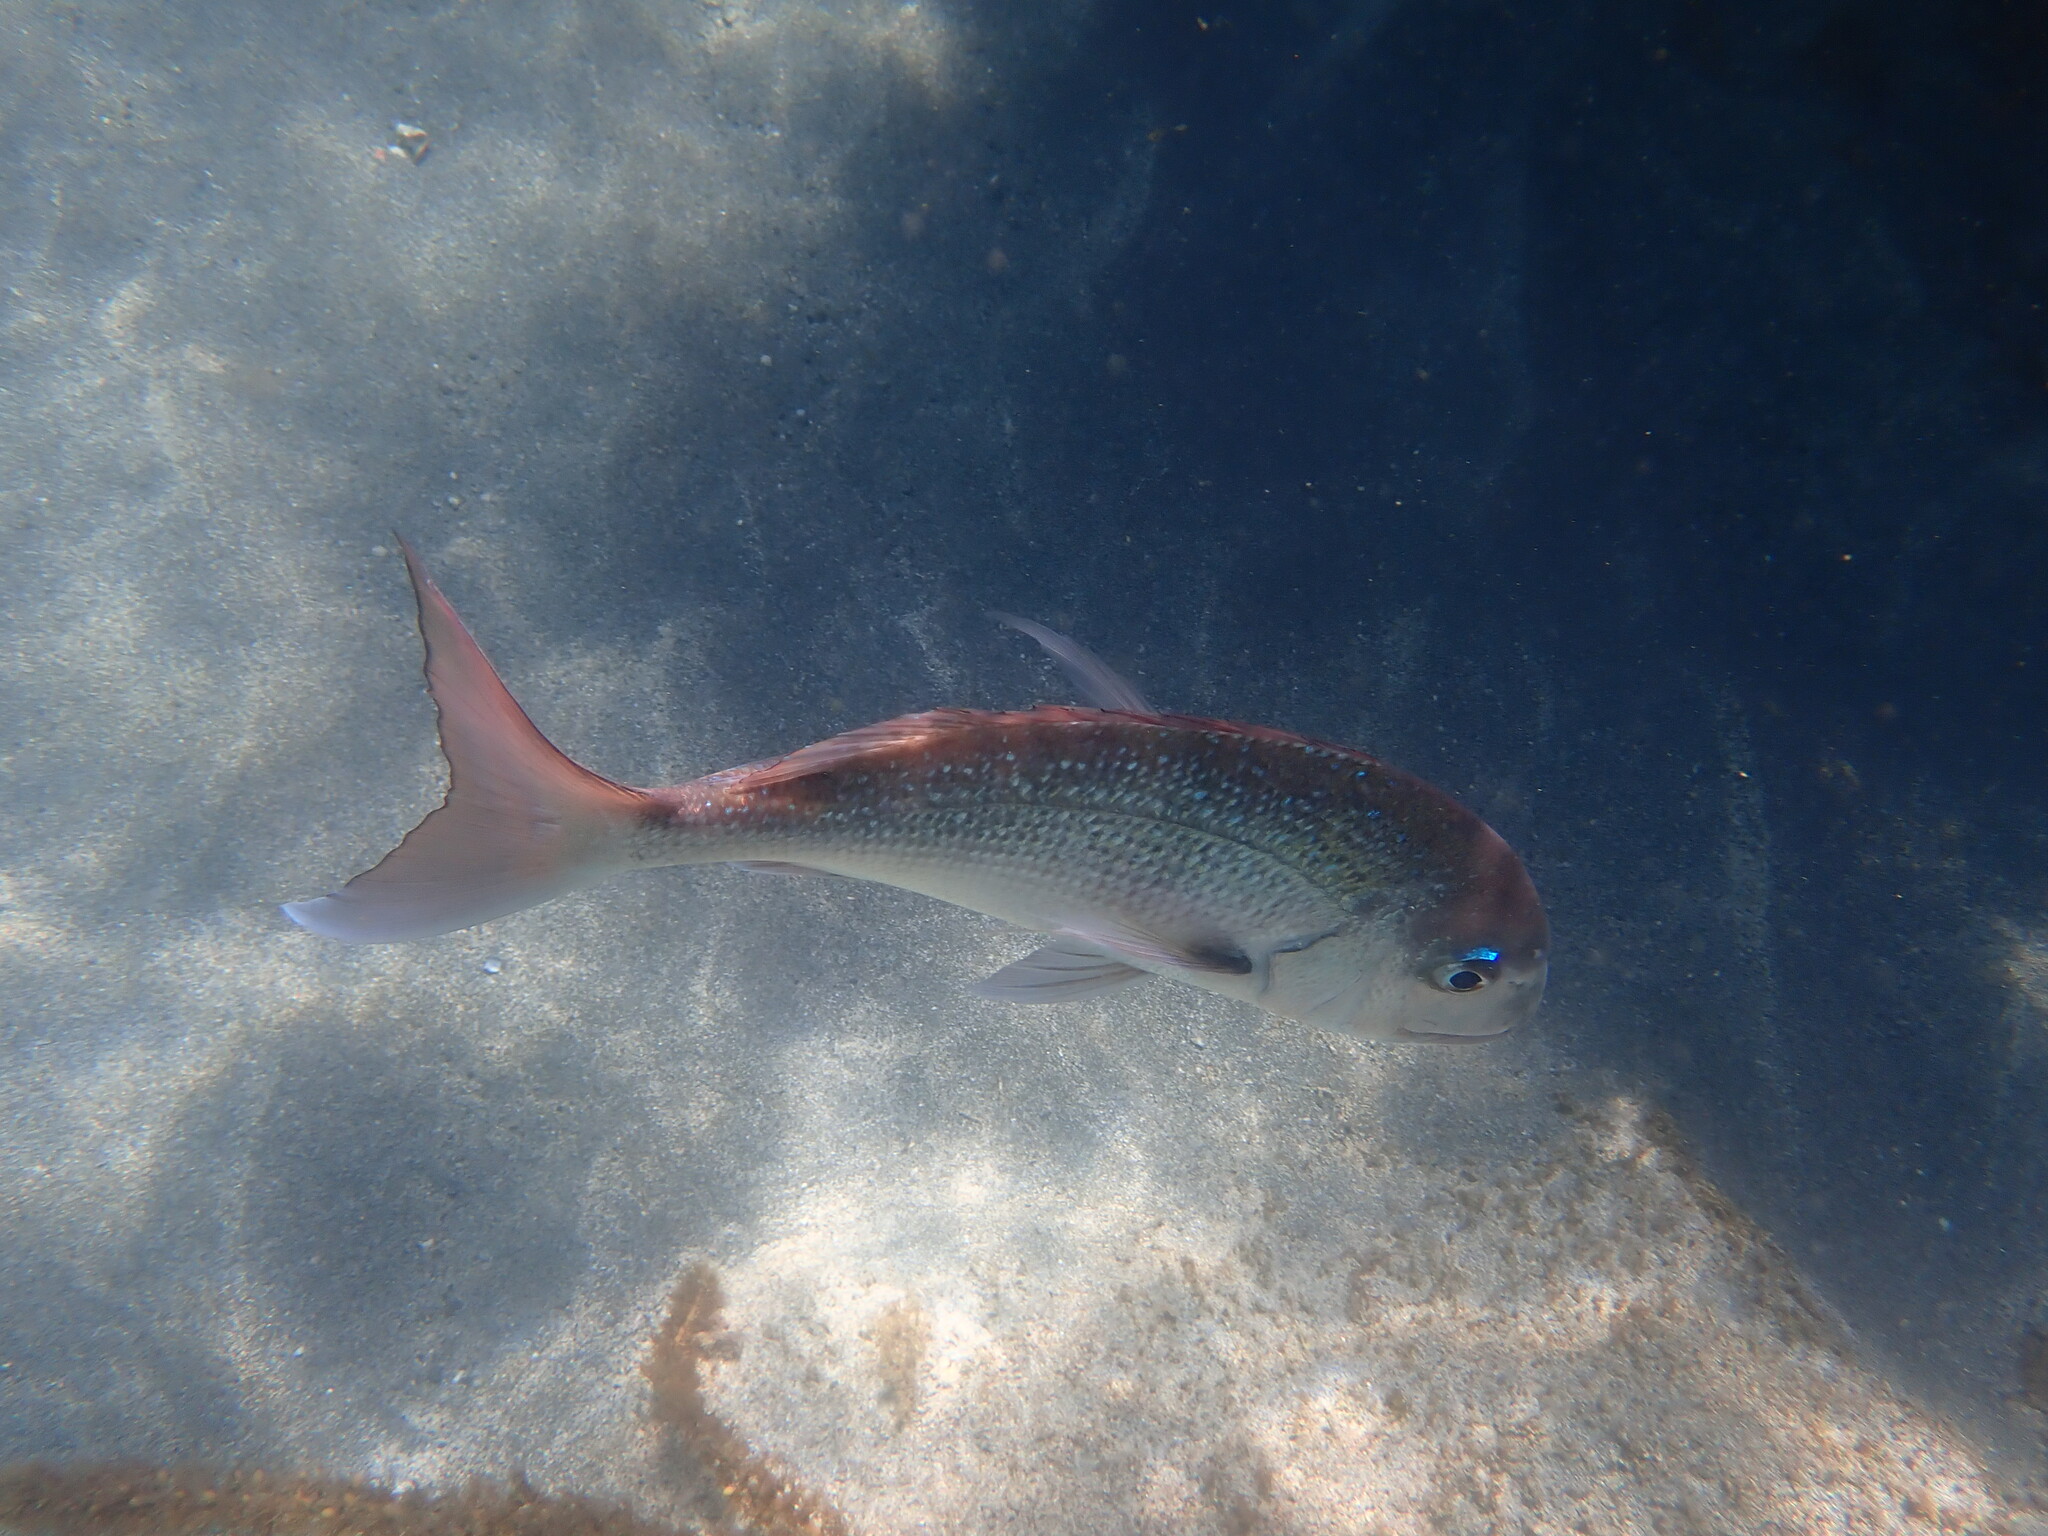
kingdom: Animalia
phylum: Chordata
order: Perciformes
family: Sparidae
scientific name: Sparidae
